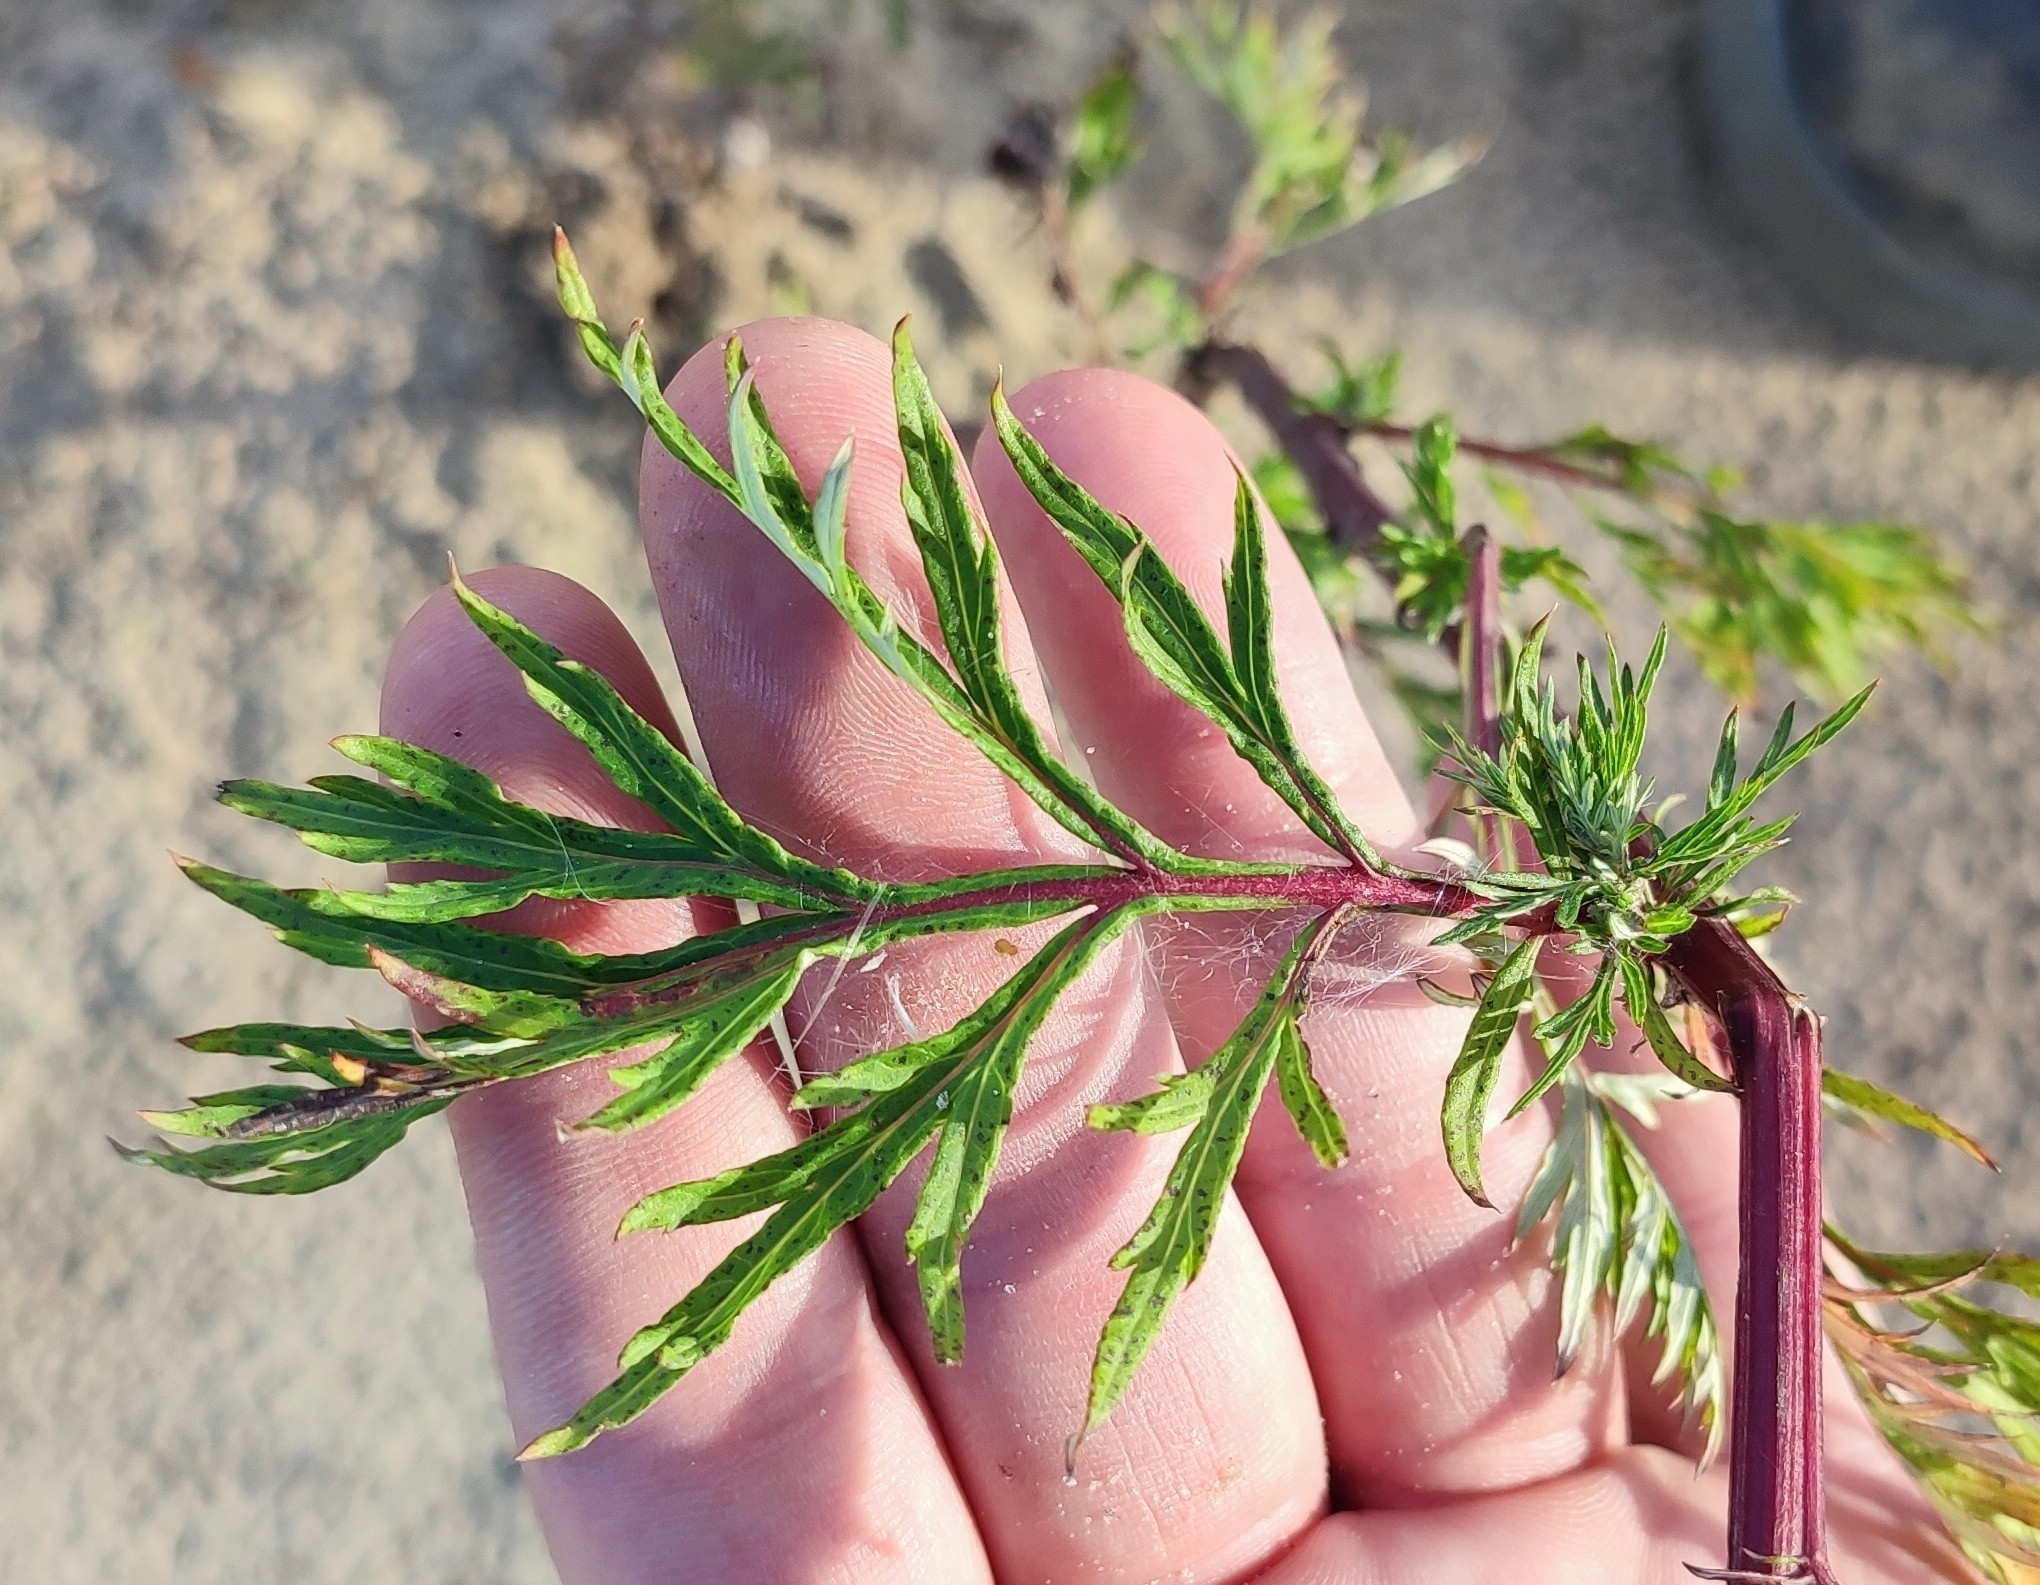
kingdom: Plantae
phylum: Tracheophyta
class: Magnoliopsida
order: Asterales
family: Asteraceae
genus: Artemisia
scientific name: Artemisia vulgaris
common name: Mugwort
